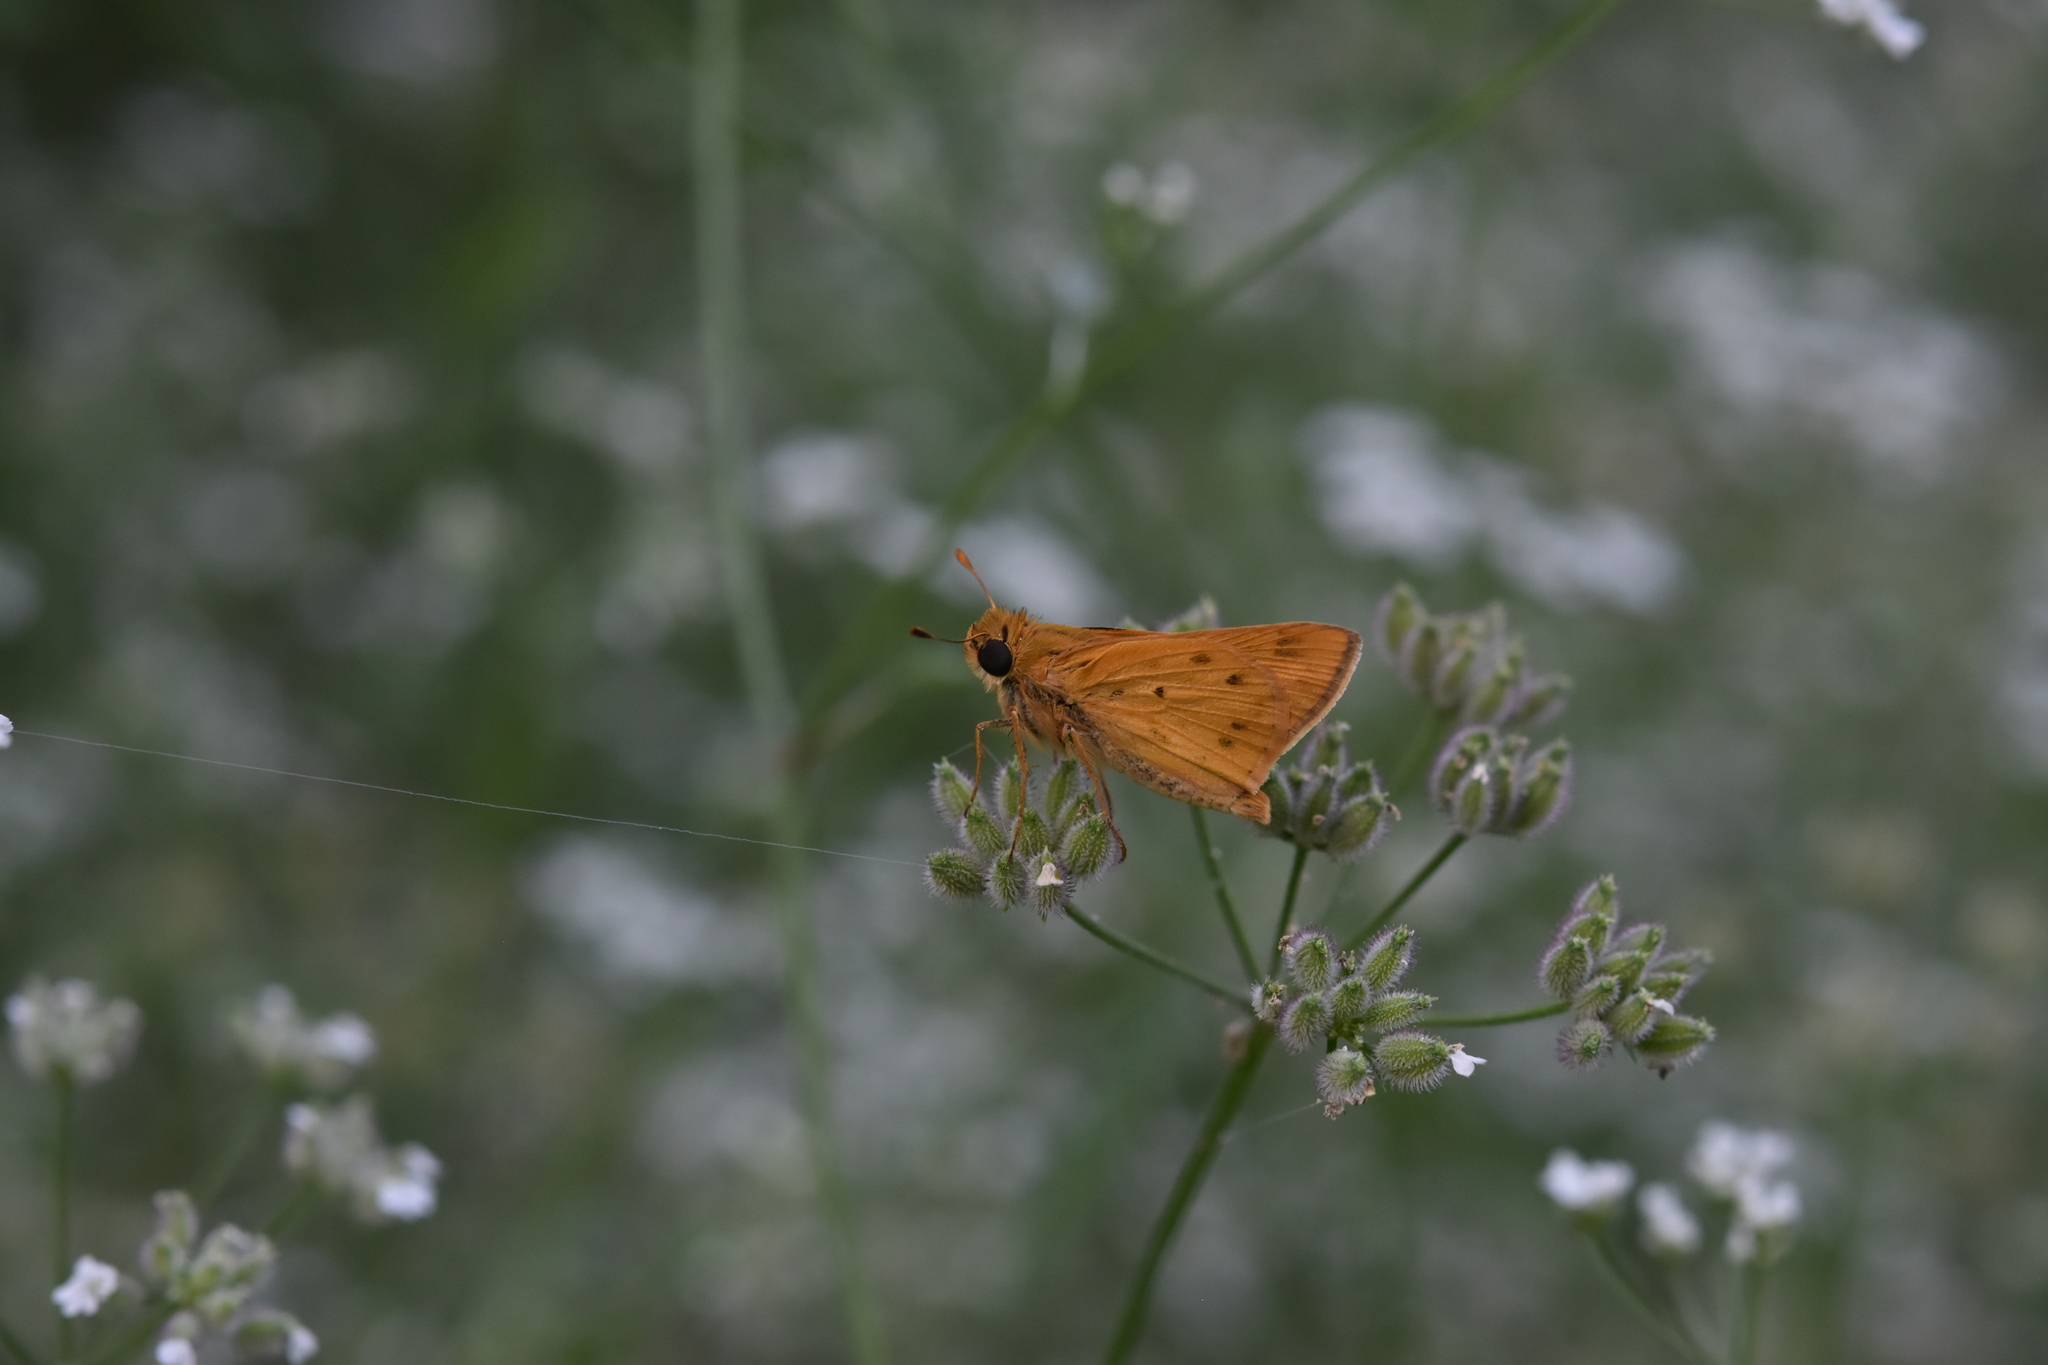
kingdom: Animalia
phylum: Arthropoda
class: Insecta
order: Lepidoptera
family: Hesperiidae
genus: Hylephila
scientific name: Hylephila phyleus
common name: Fiery skipper
